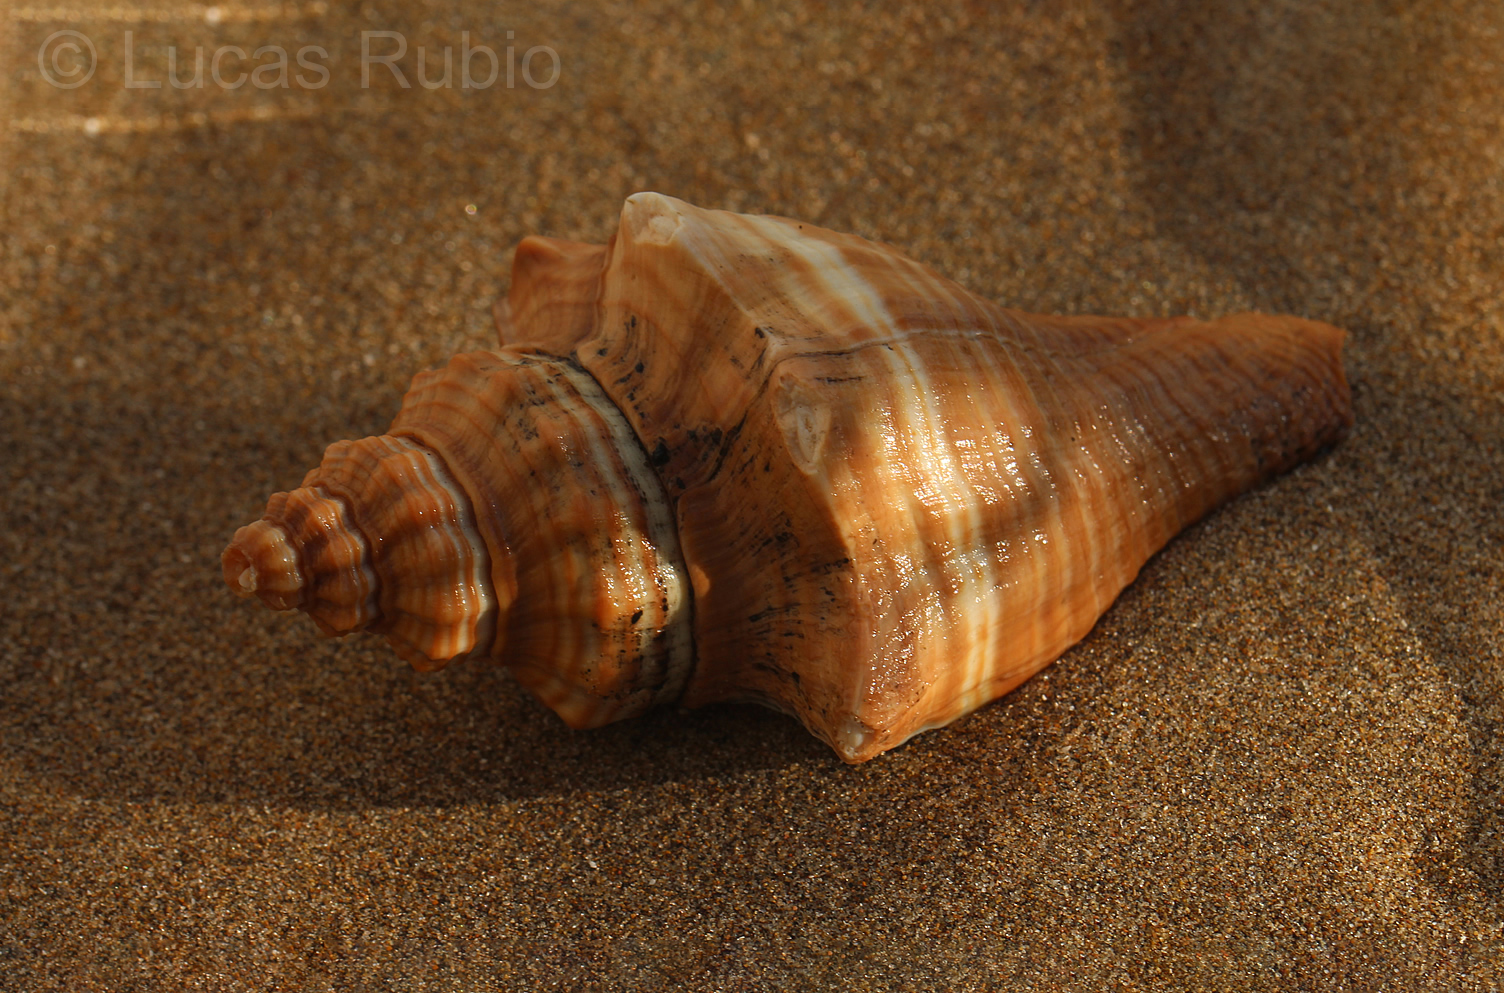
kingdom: Animalia
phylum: Mollusca
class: Gastropoda
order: Neogastropoda
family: Melongenidae
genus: Pugilina
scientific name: Pugilina tupiniquim
